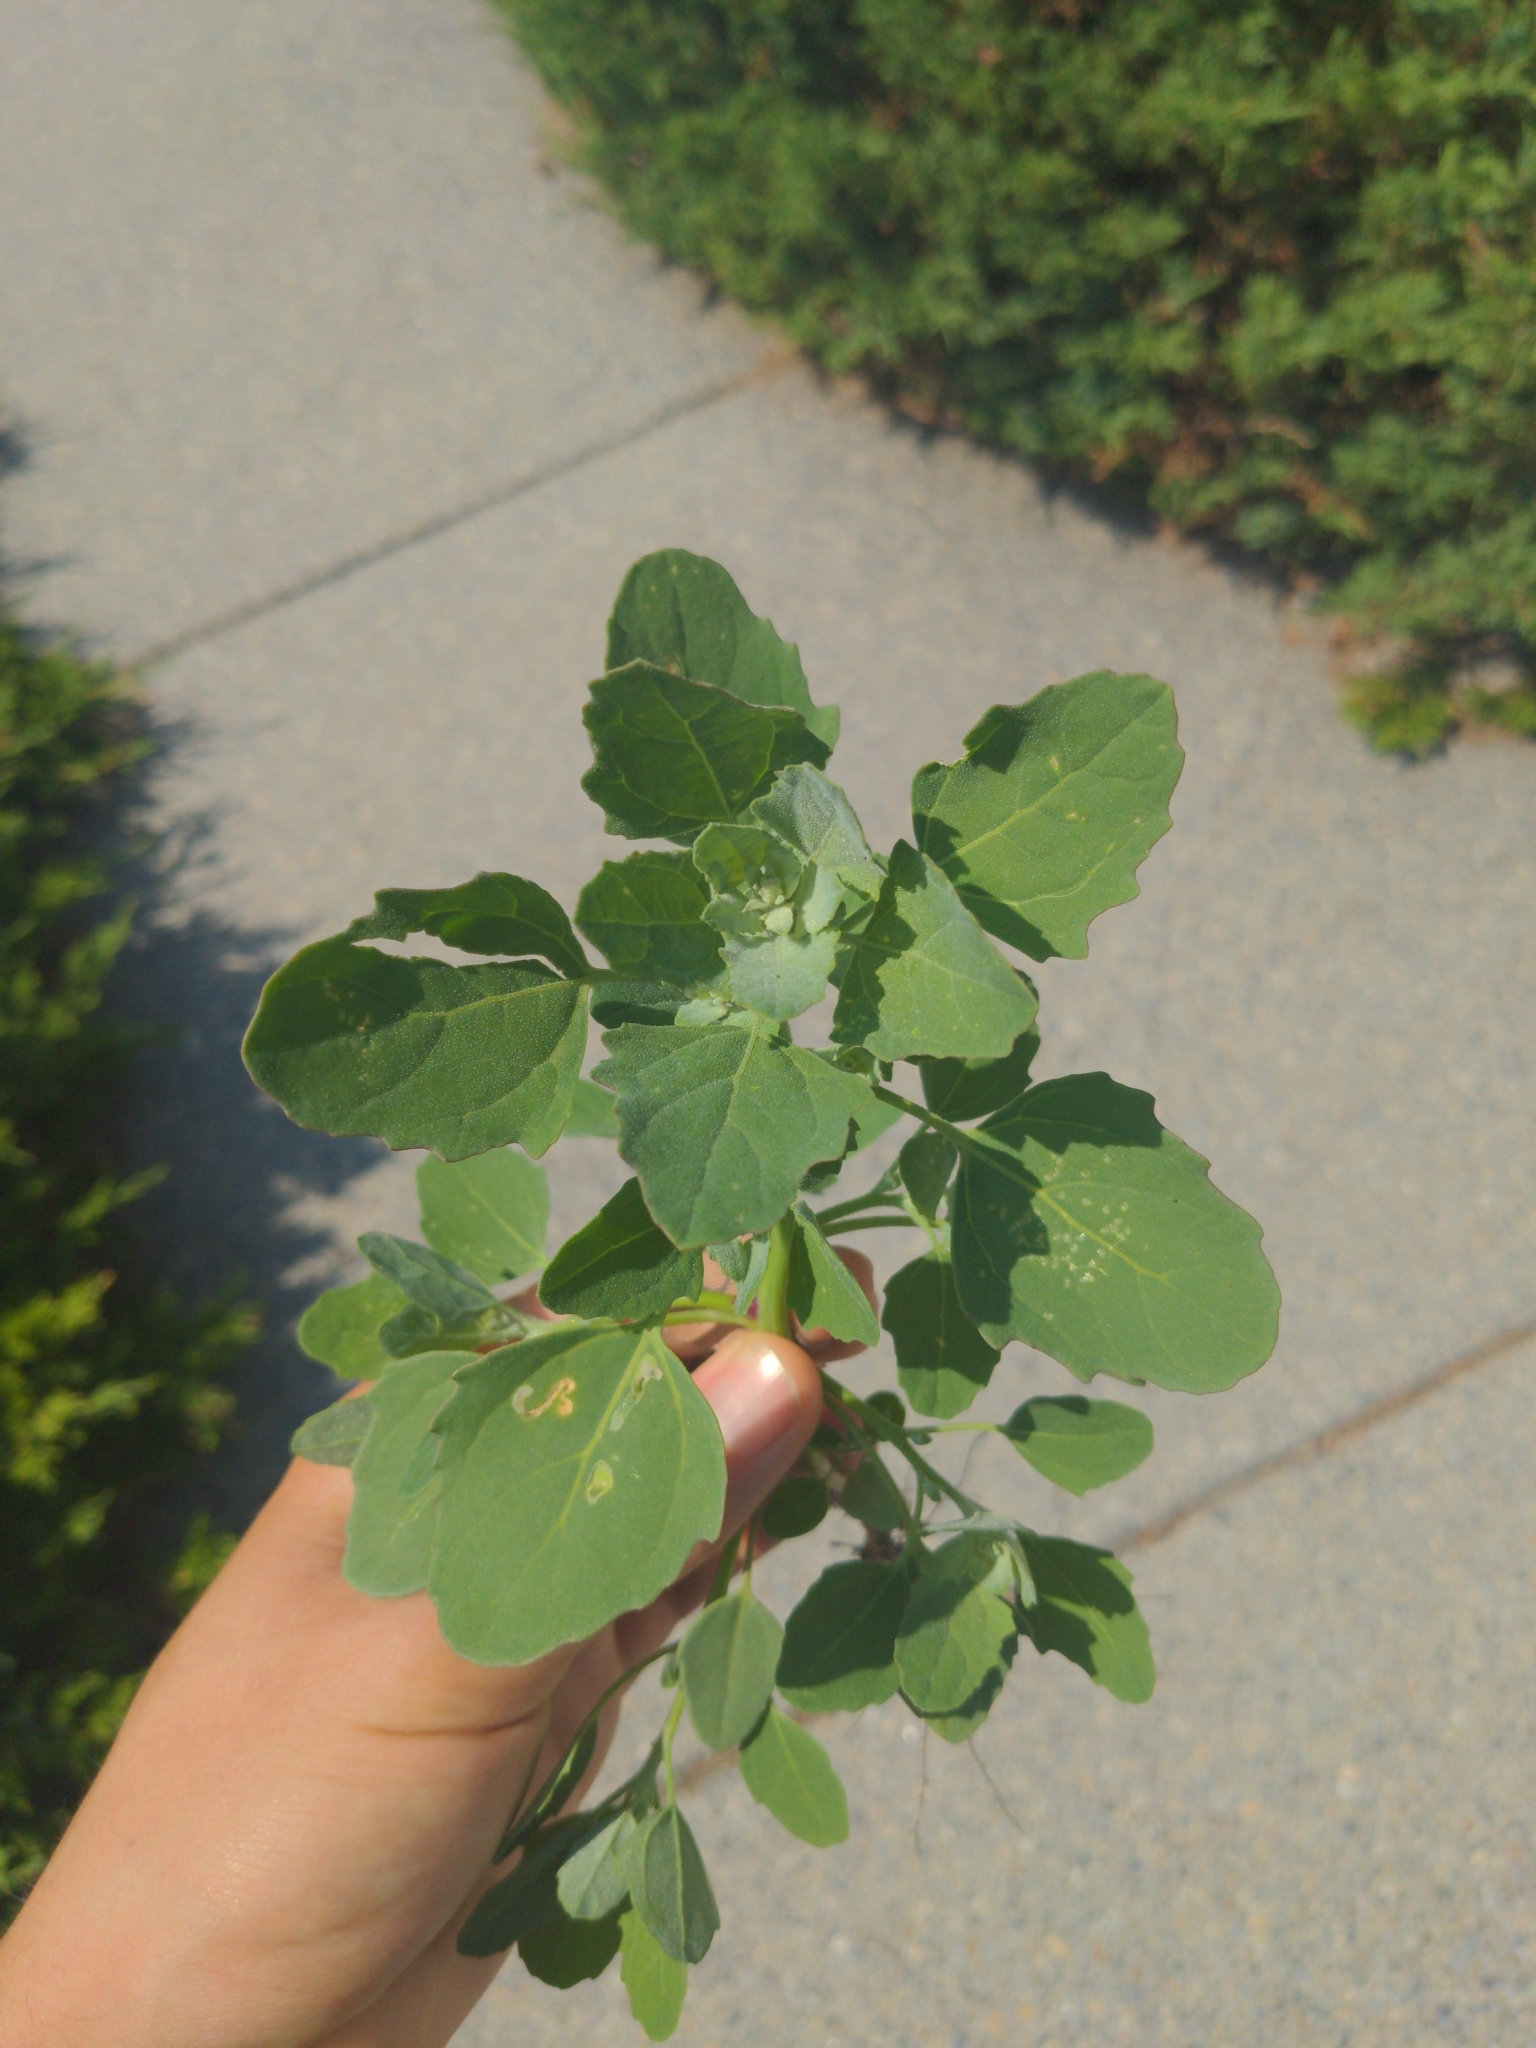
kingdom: Plantae
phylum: Tracheophyta
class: Magnoliopsida
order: Caryophyllales
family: Amaranthaceae
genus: Chenopodium
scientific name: Chenopodium album
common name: Fat-hen
